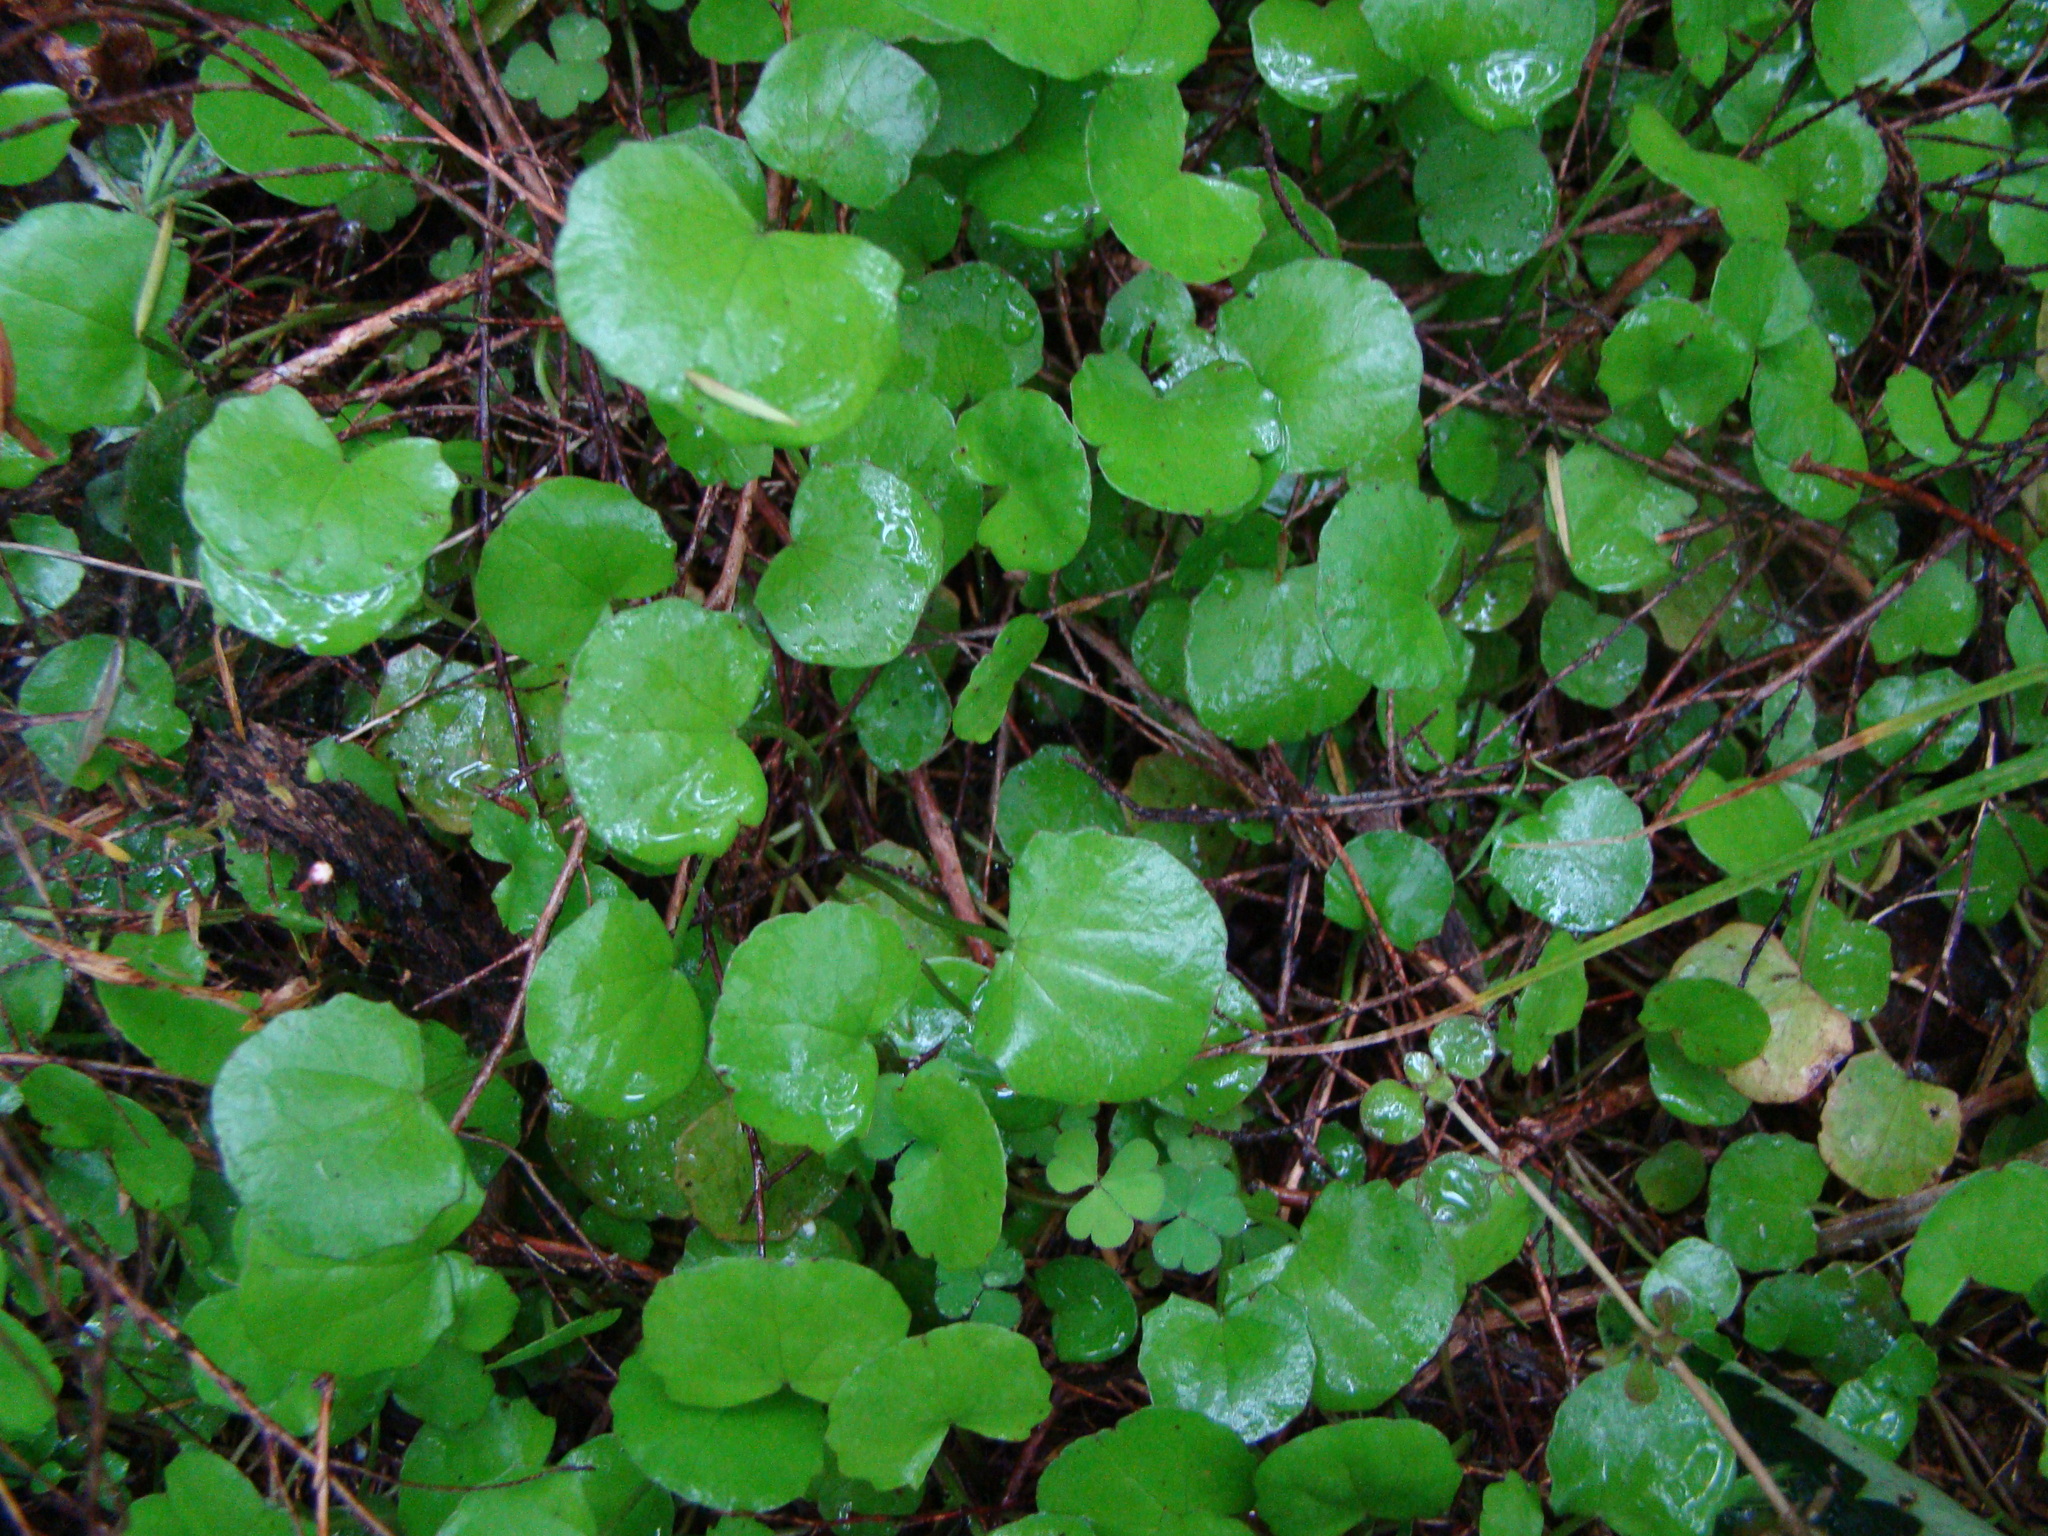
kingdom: Plantae
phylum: Tracheophyta
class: Magnoliopsida
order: Apiales
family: Apiaceae
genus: Centella
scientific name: Centella uniflora
